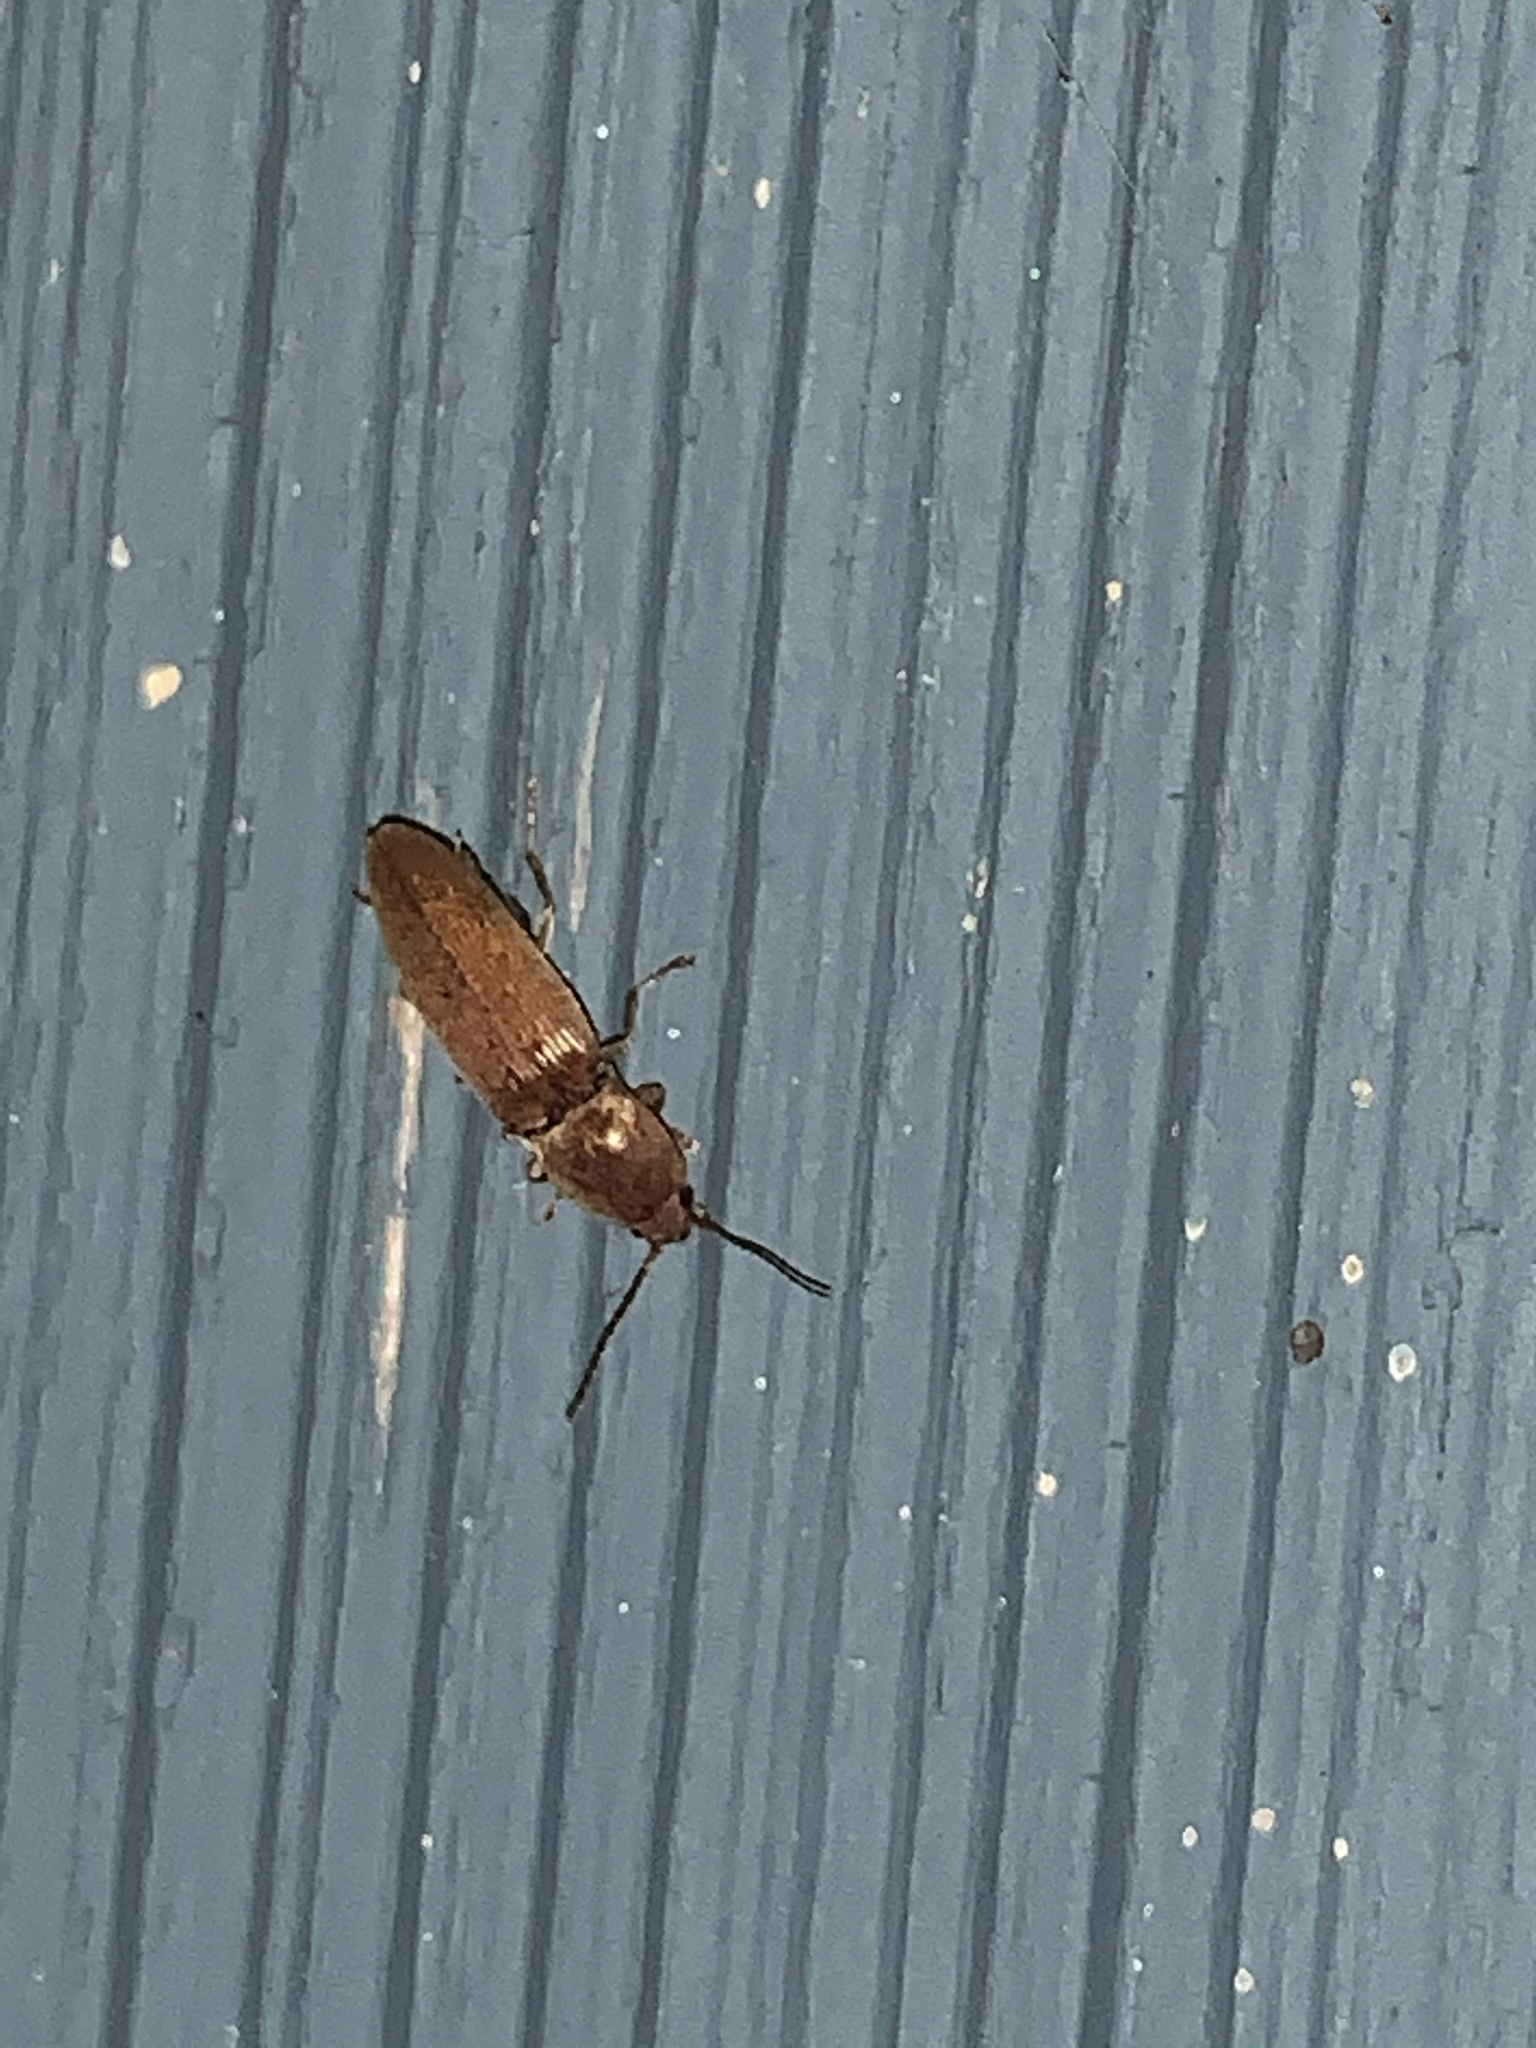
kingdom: Animalia
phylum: Arthropoda
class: Insecta
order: Coleoptera
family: Elateridae
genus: Monocrepidius
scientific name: Monocrepidius lividus
